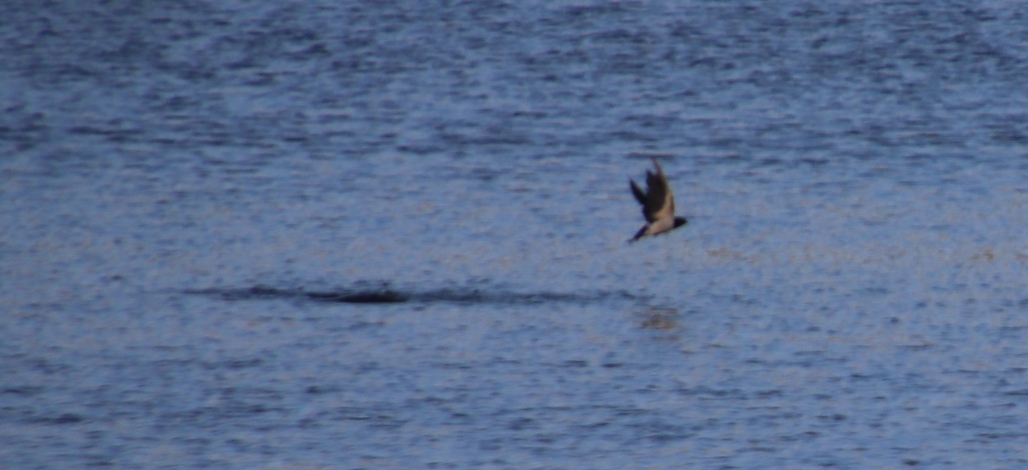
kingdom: Animalia
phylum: Chordata
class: Aves
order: Passeriformes
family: Hirundinidae
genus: Hirundo
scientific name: Hirundo rustica
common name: Barn swallow
